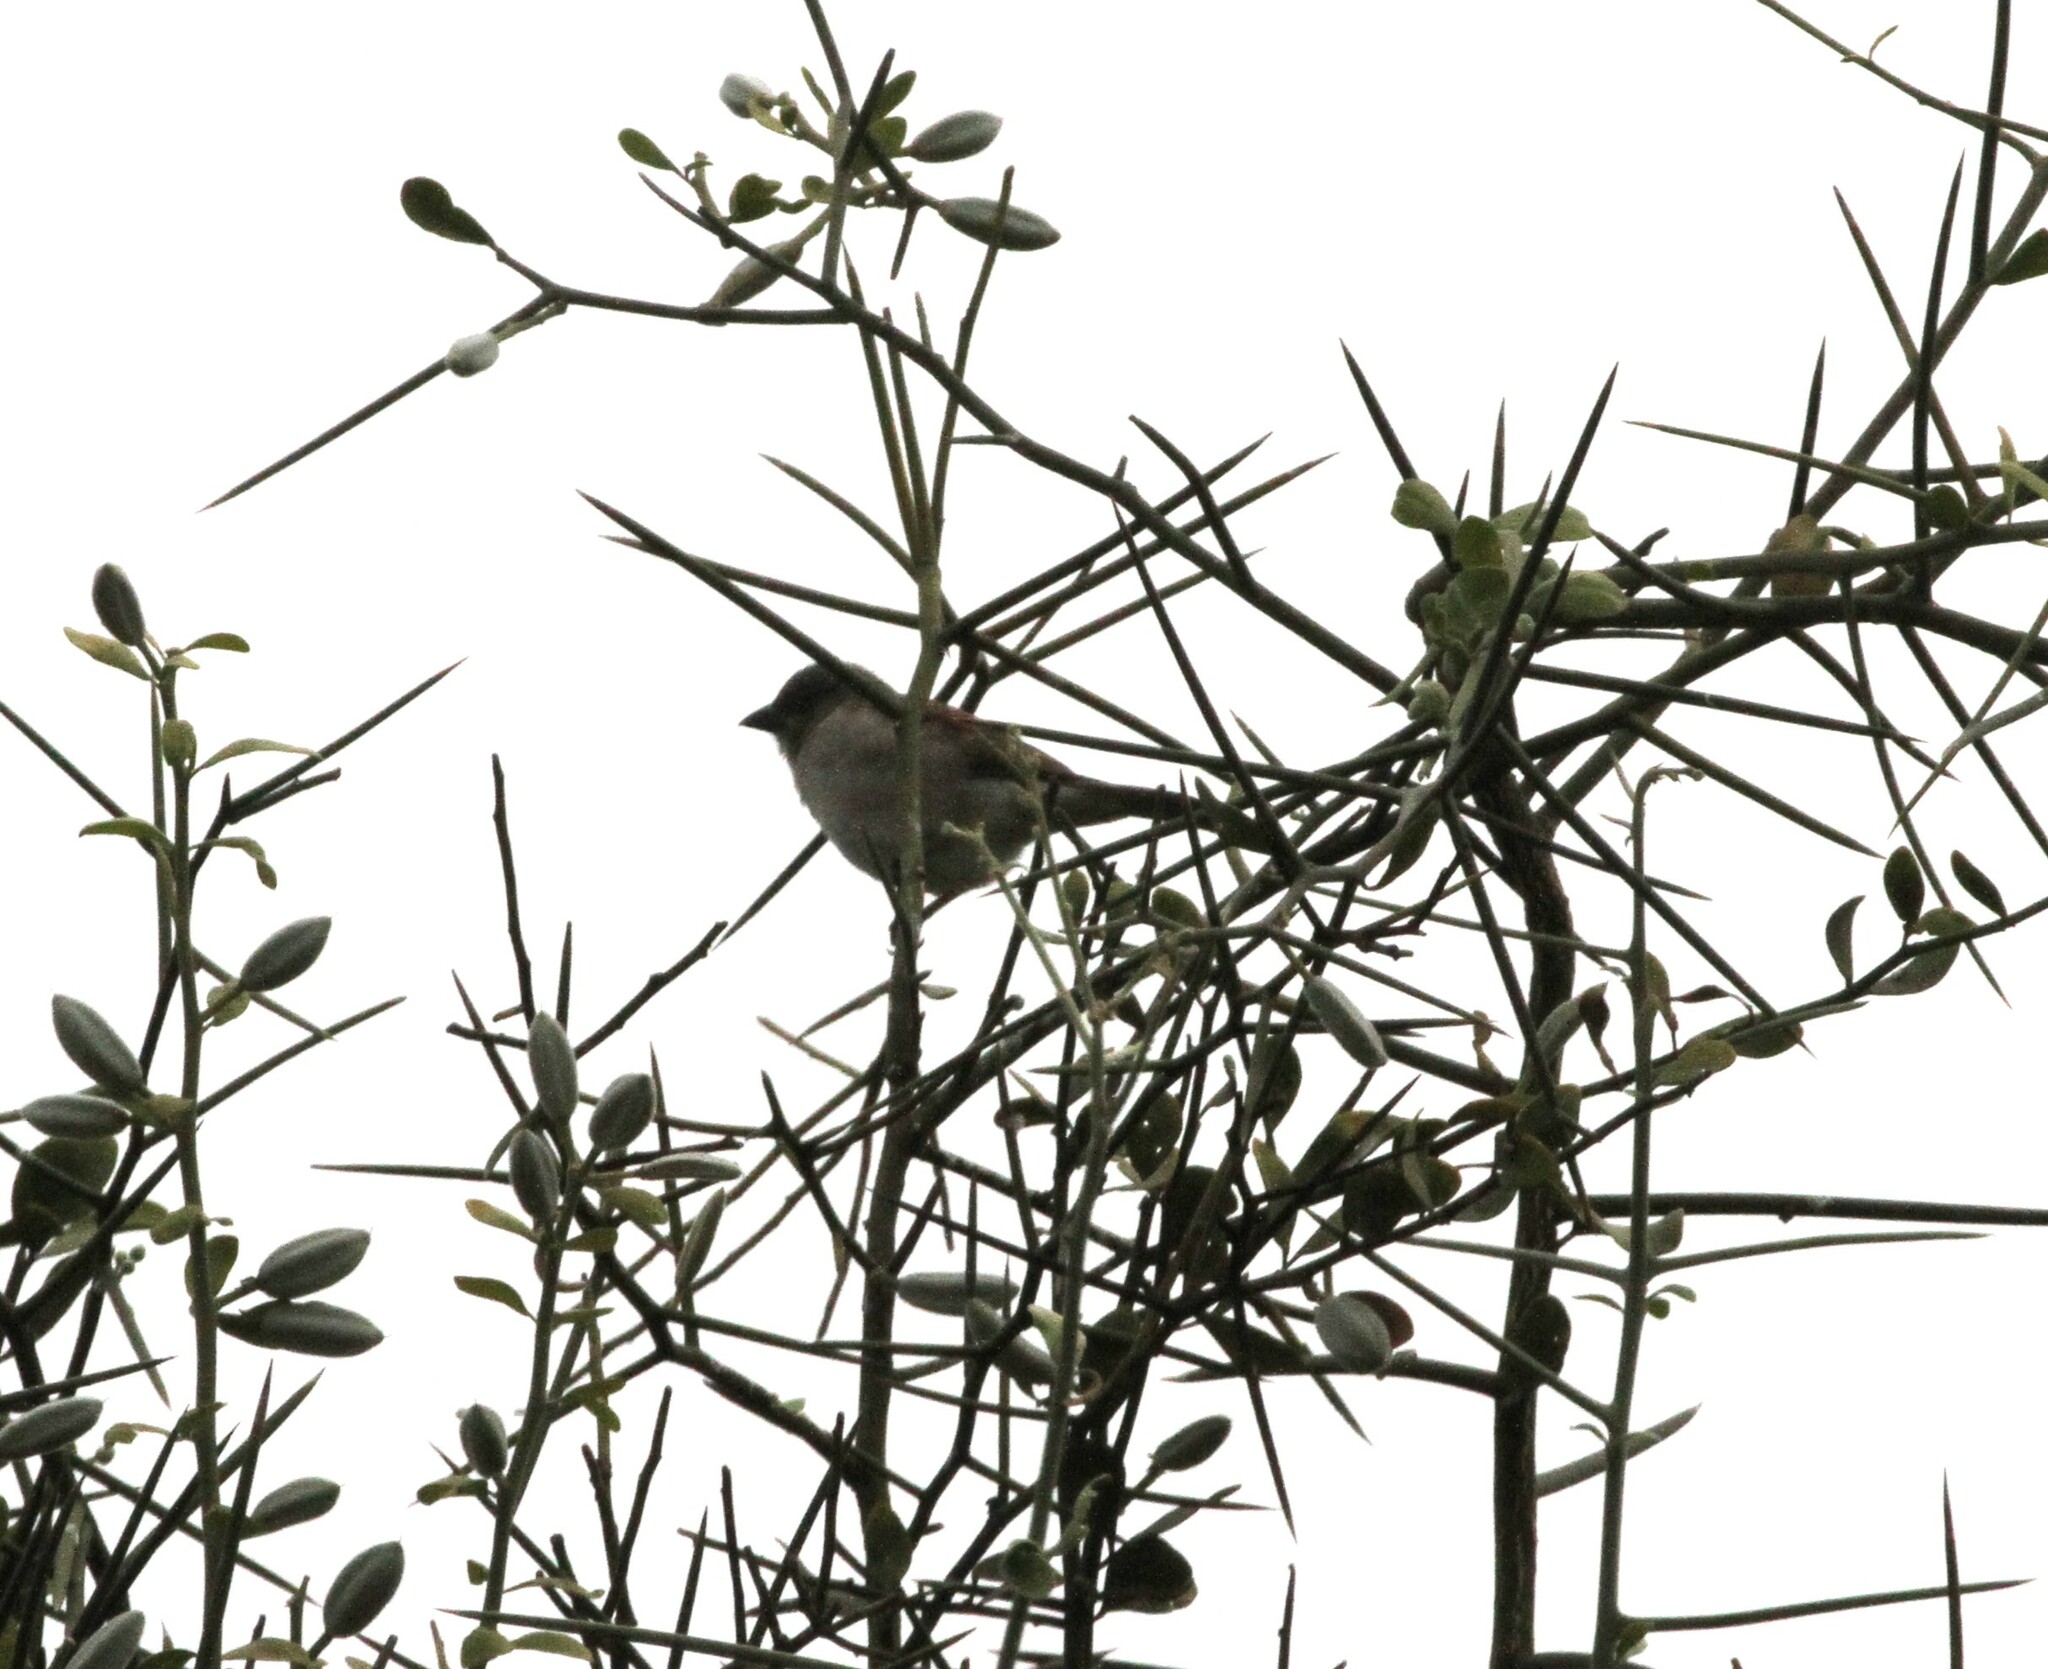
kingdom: Animalia
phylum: Chordata
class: Aves
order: Passeriformes
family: Passeridae
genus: Passer
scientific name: Passer griseus
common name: Northern grey-headed sparrow
